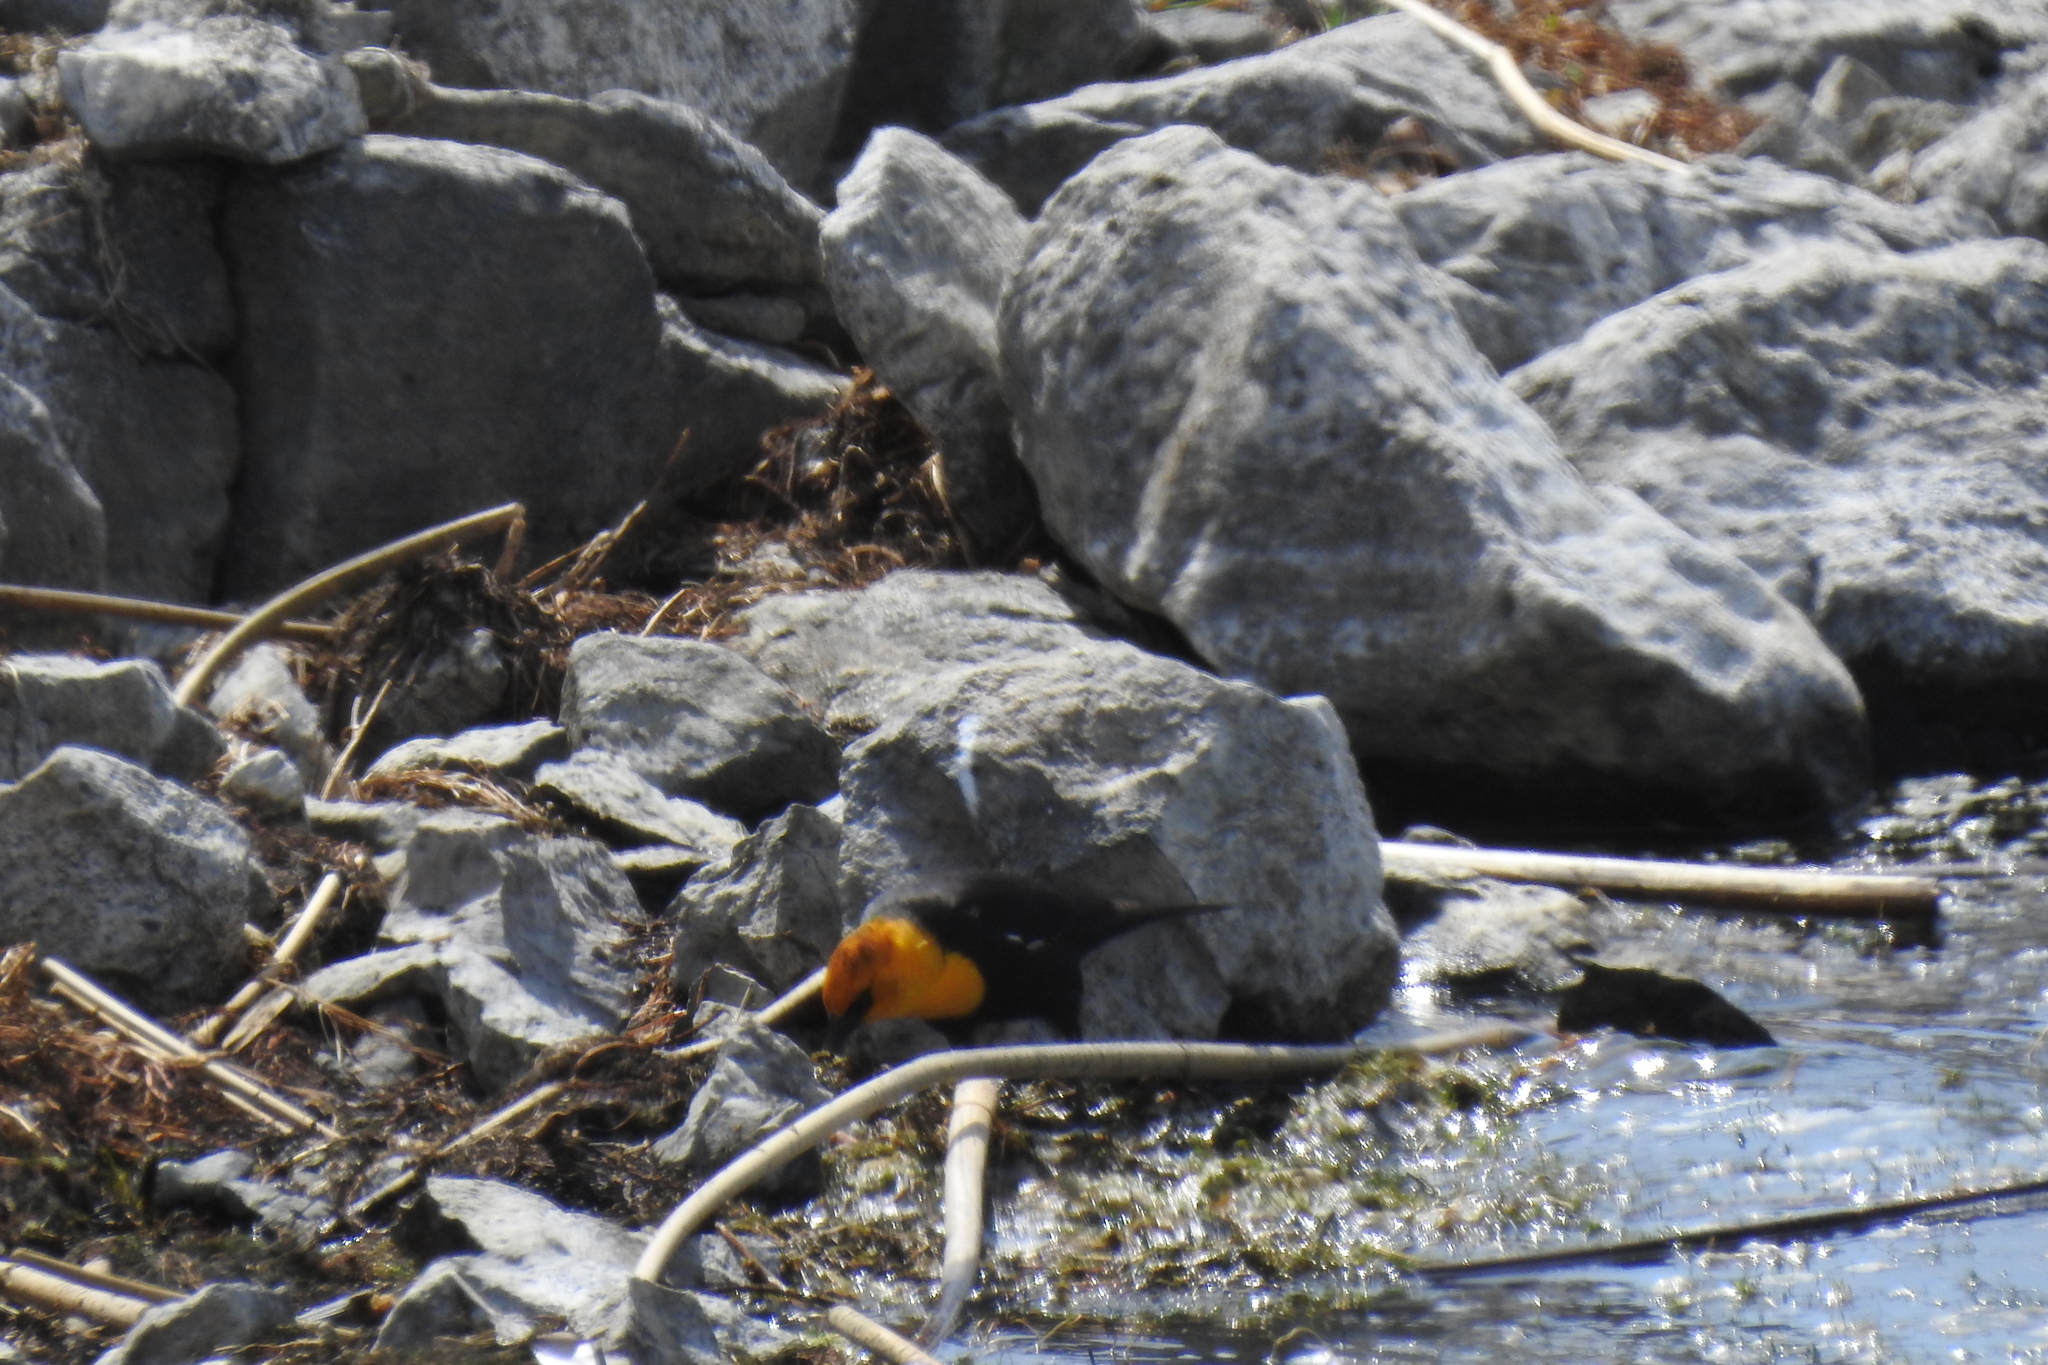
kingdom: Animalia
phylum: Chordata
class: Aves
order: Passeriformes
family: Icteridae
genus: Xanthocephalus
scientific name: Xanthocephalus xanthocephalus
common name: Yellow-headed blackbird
